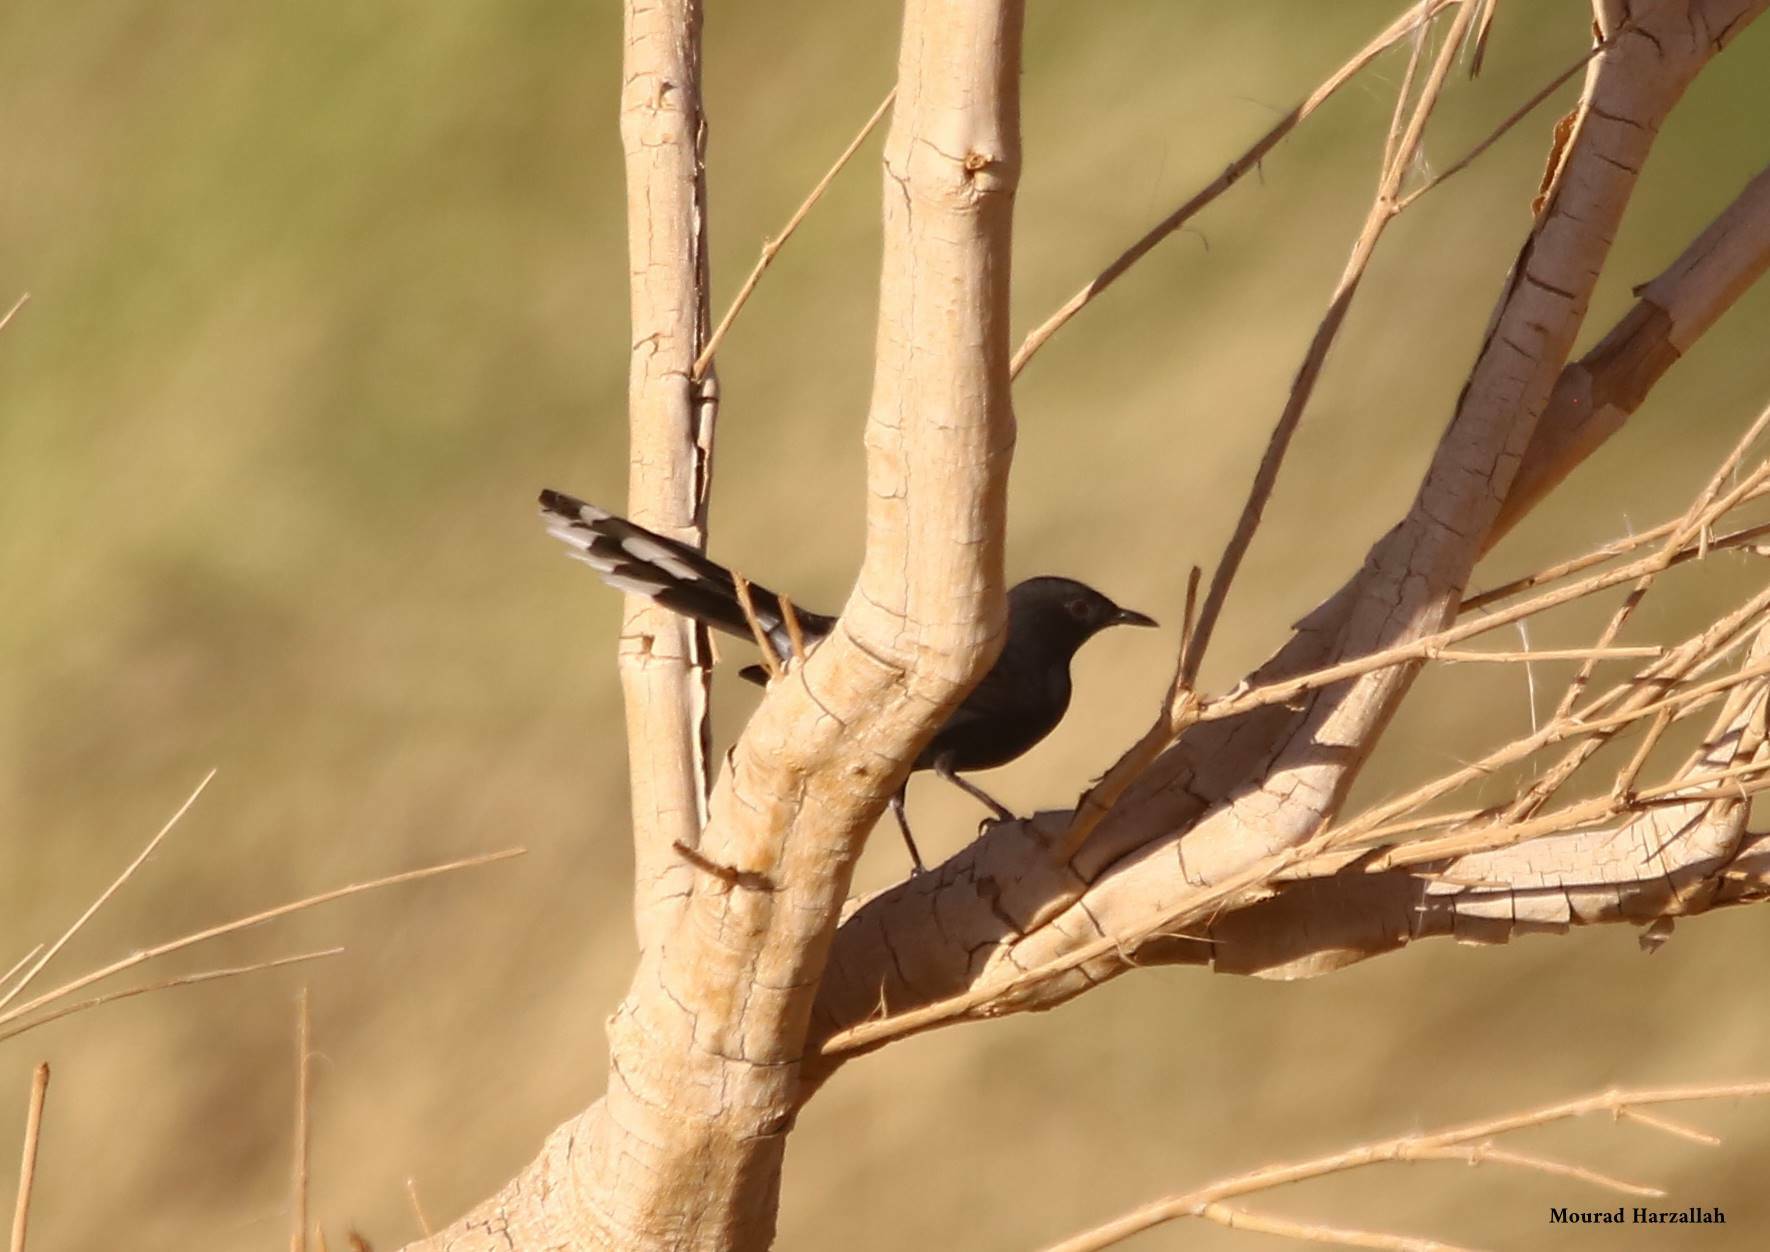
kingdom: Animalia
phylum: Chordata
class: Aves
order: Passeriformes
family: Muscicapidae
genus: Cercotrichas
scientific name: Cercotrichas podobe
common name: Black scrub robin
